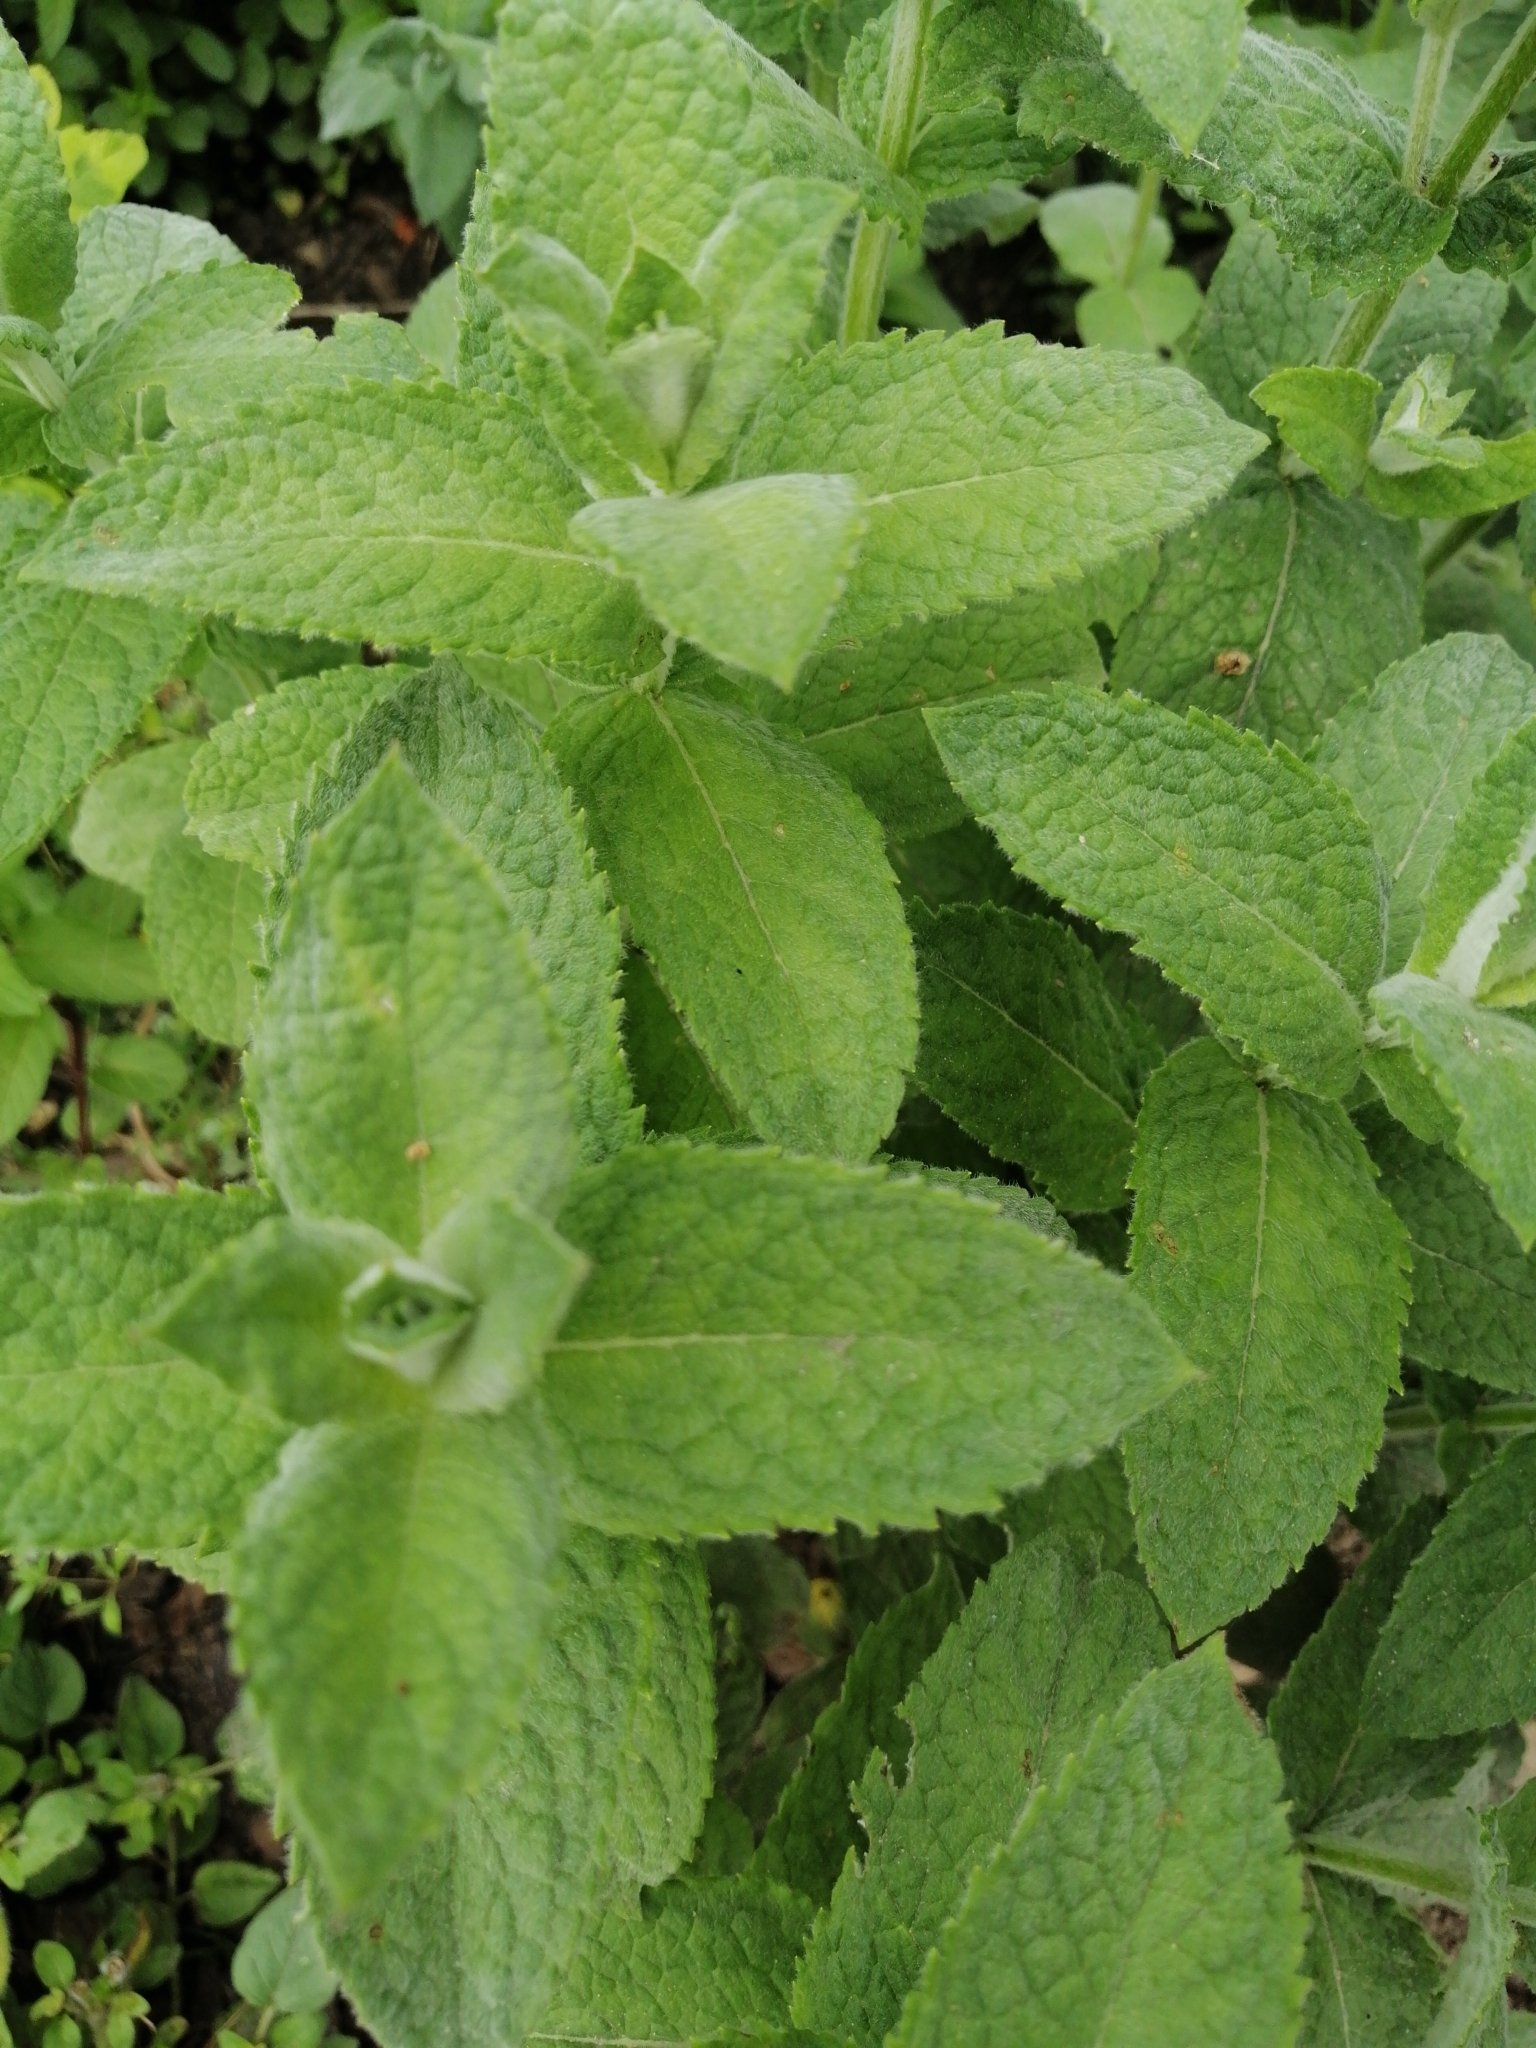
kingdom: Plantae
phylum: Tracheophyta
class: Magnoliopsida
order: Lamiales
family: Lamiaceae
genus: Mentha
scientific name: Mentha suaveolens
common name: Apple mint
